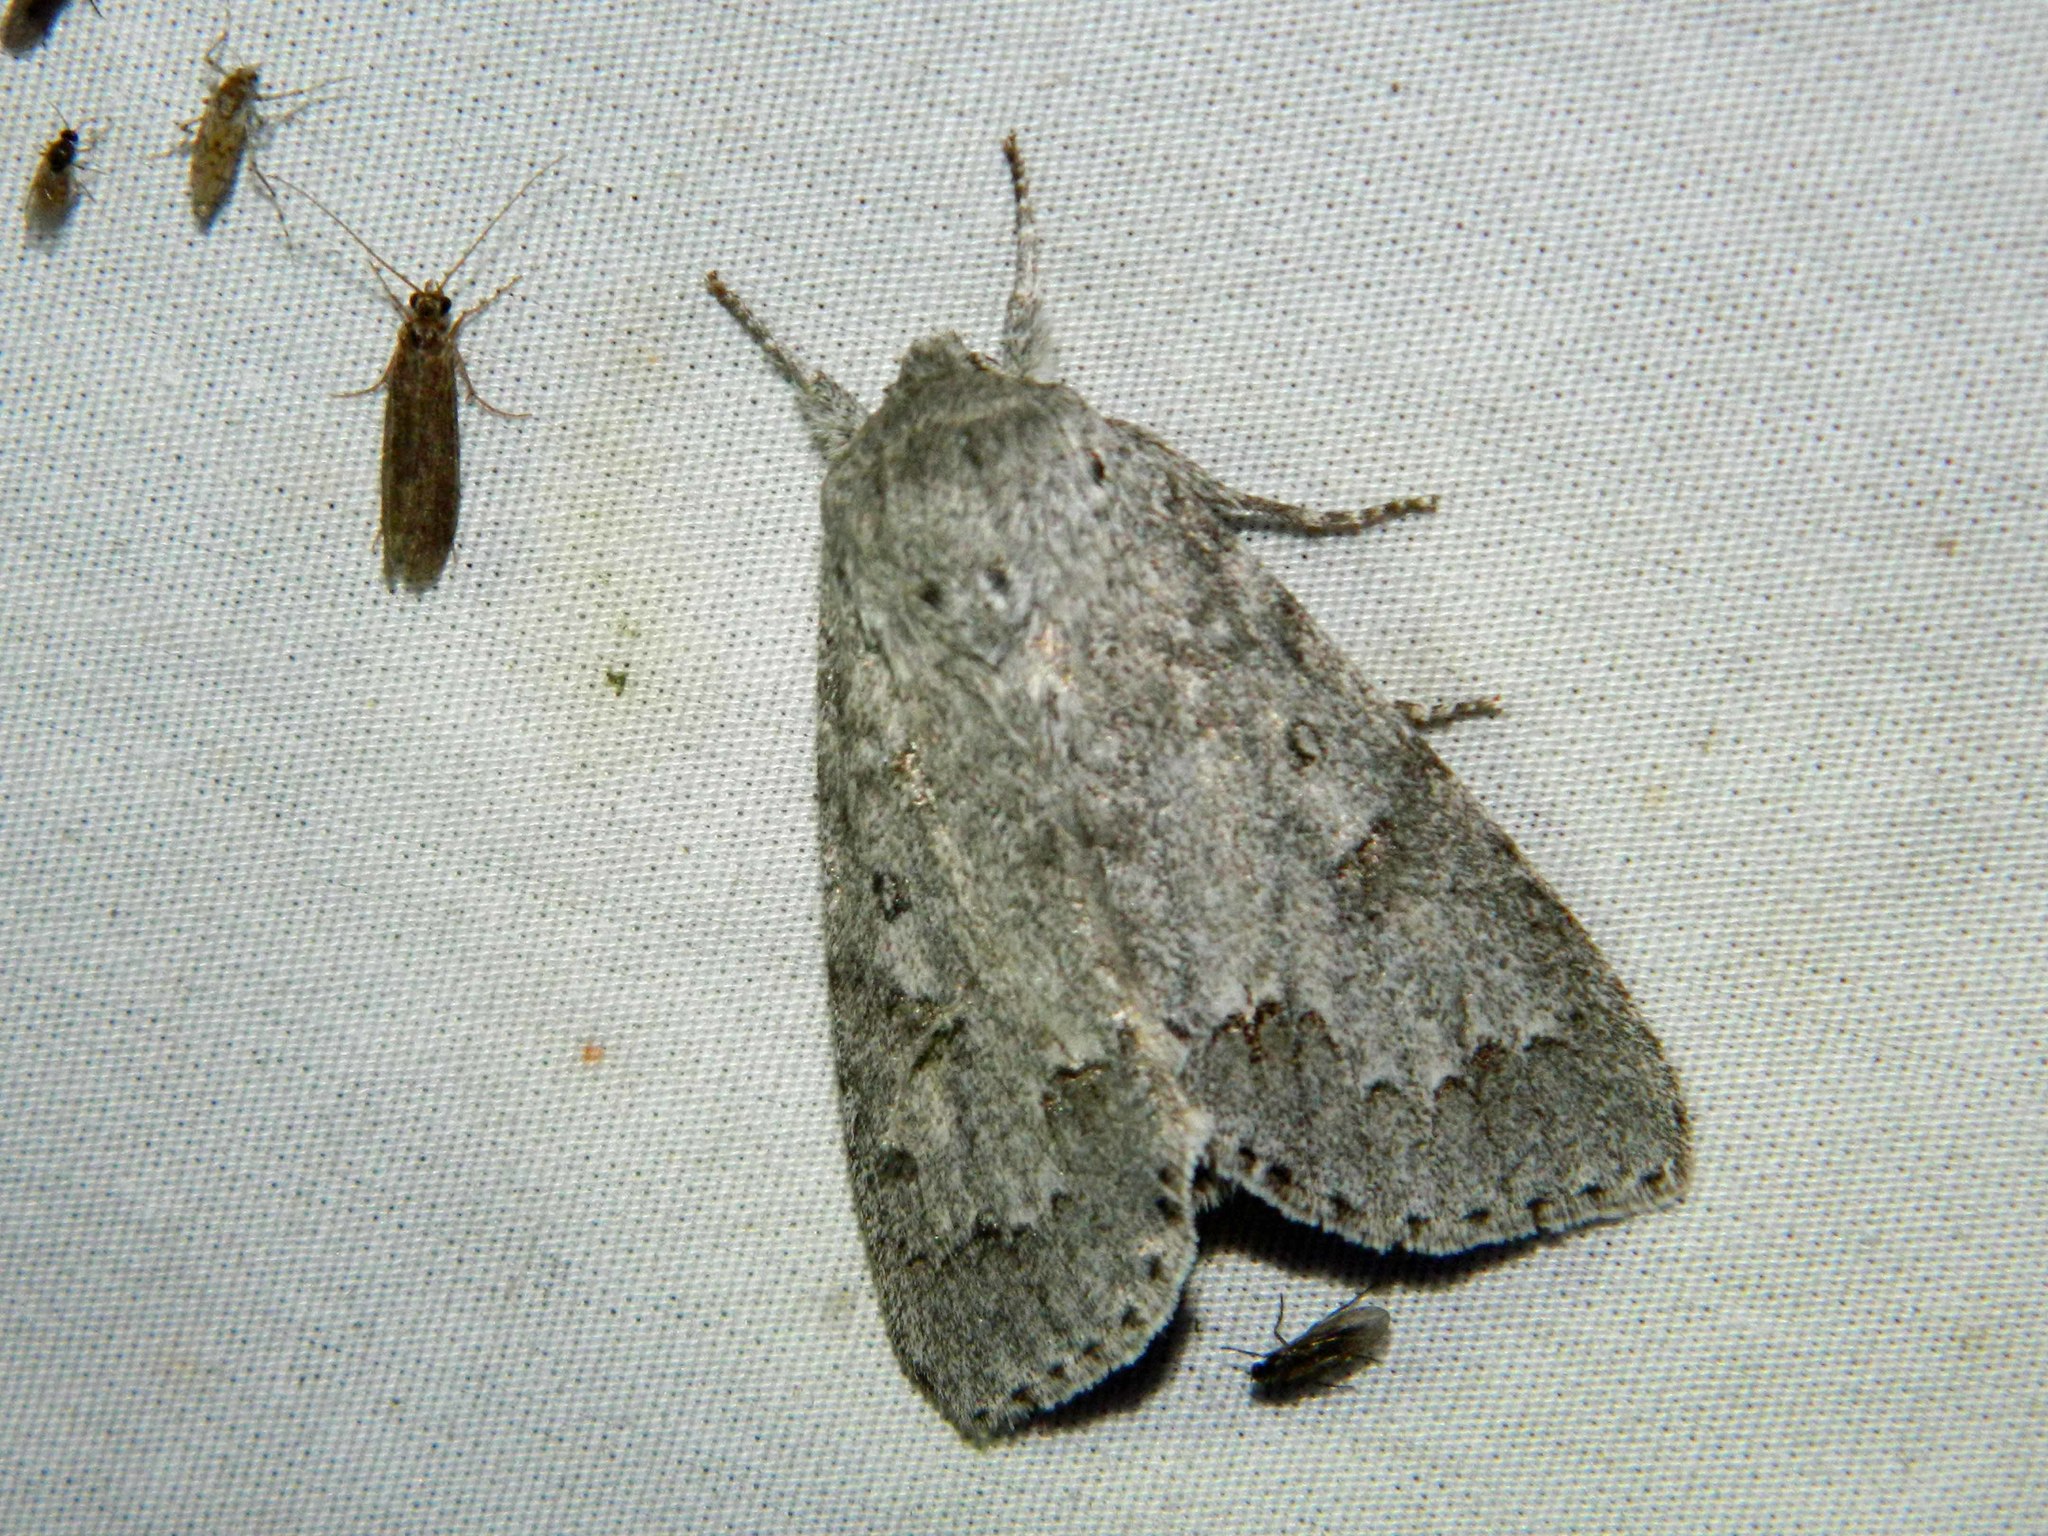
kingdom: Animalia
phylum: Arthropoda
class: Insecta
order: Lepidoptera
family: Noctuidae
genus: Acronicta
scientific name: Acronicta insita
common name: Large gray dagger
